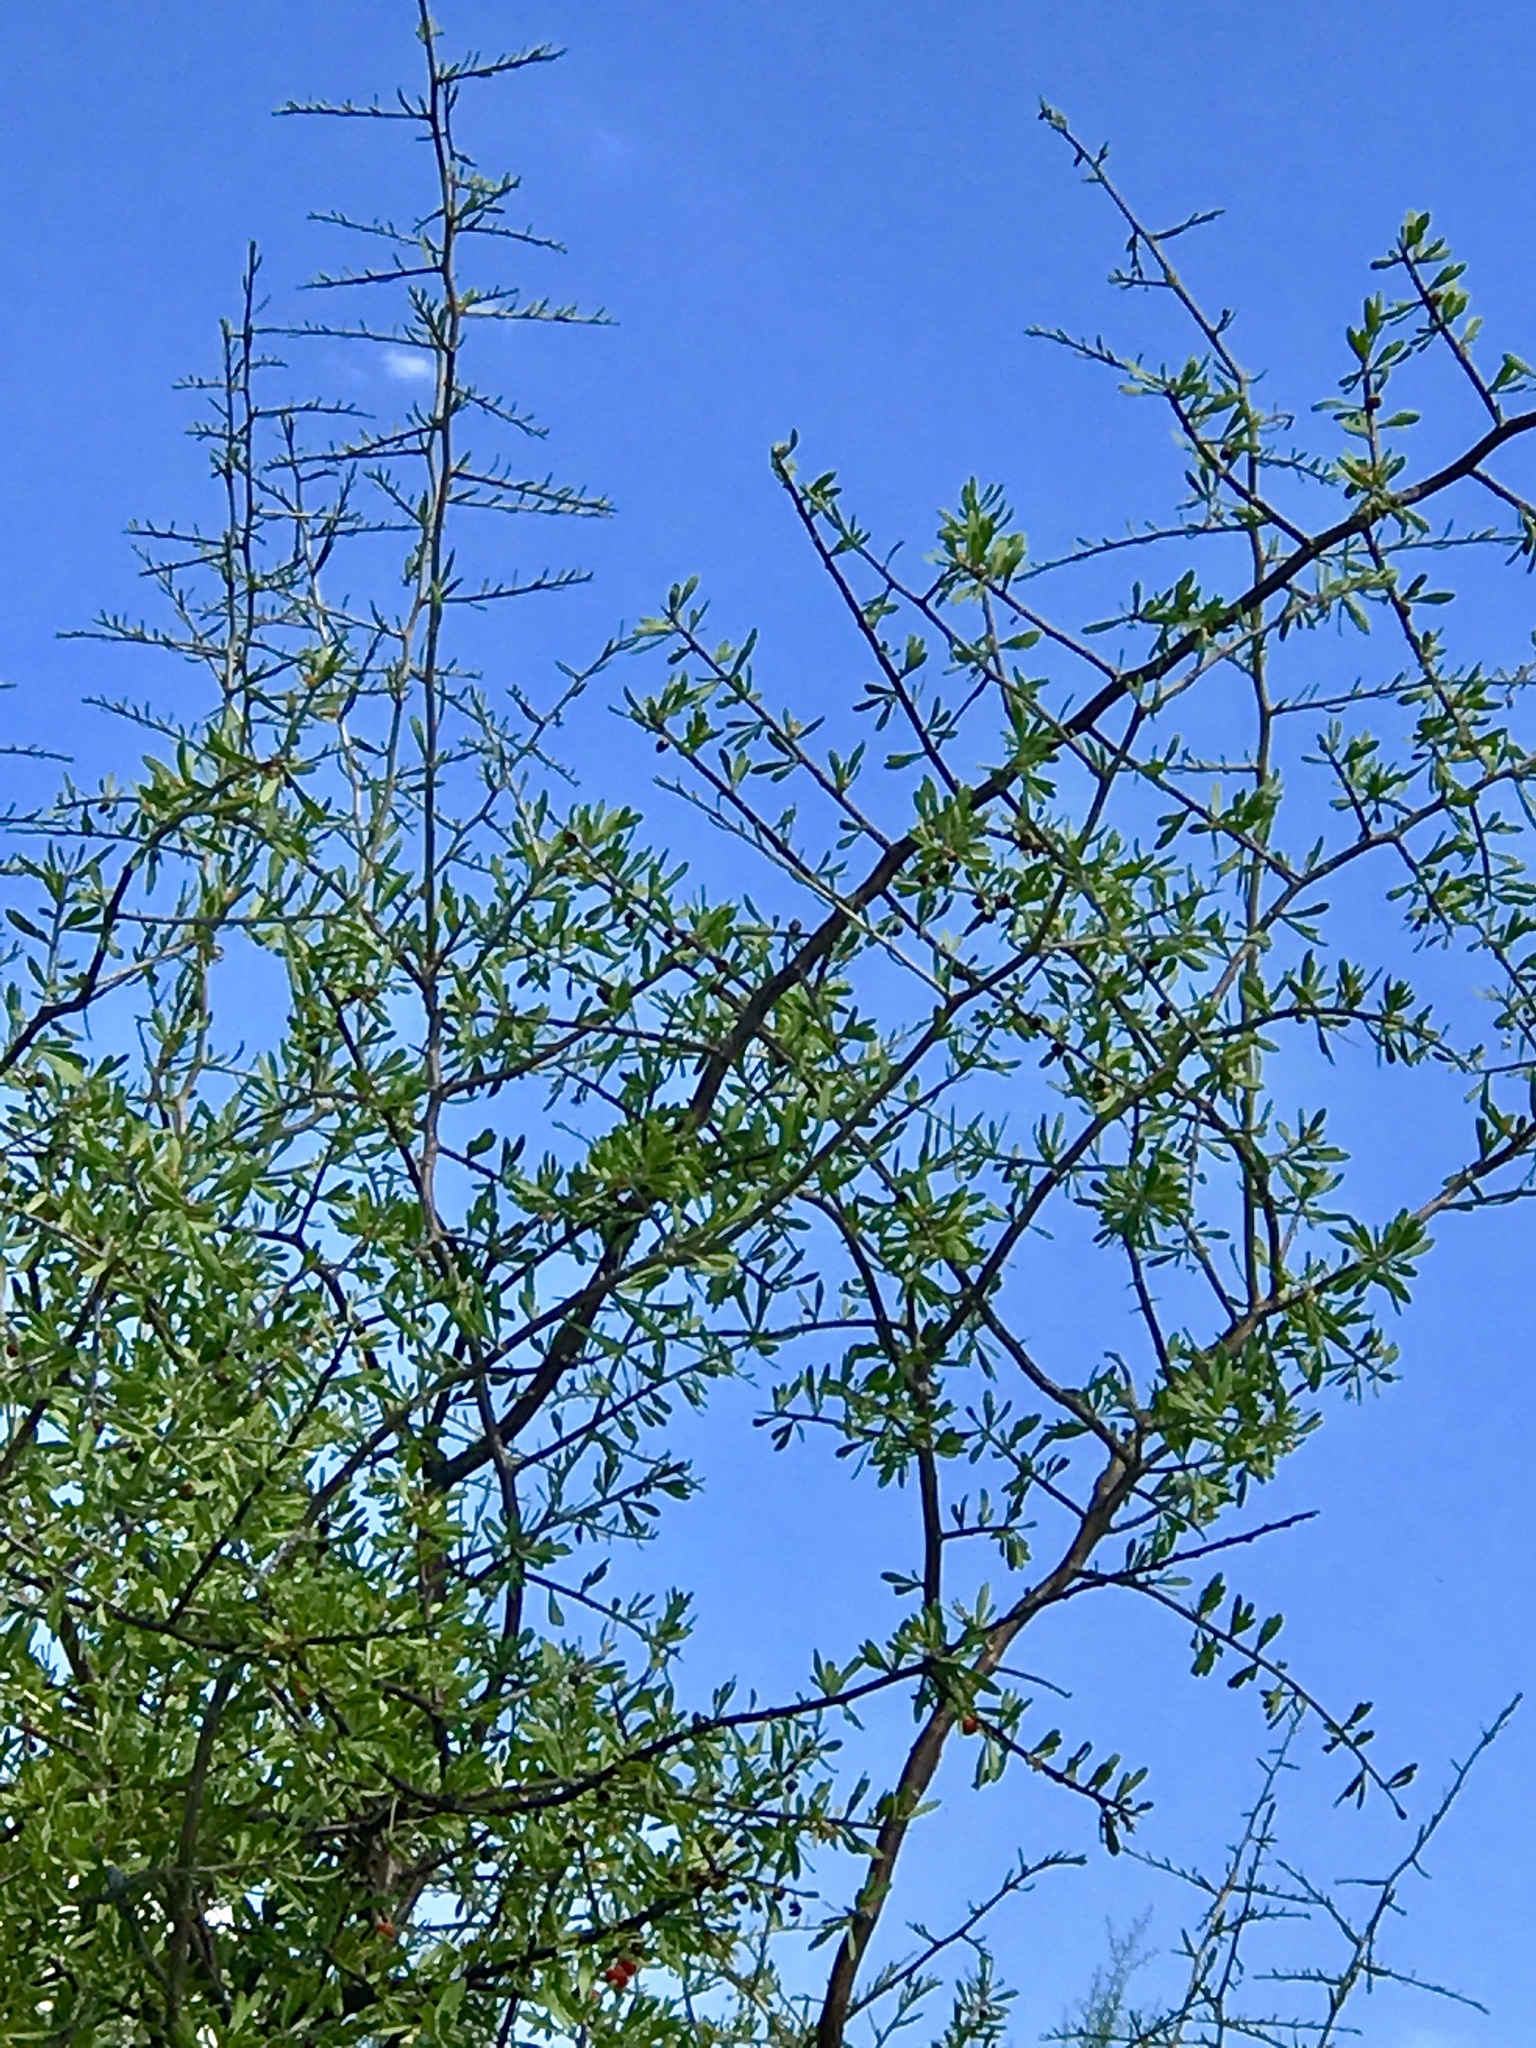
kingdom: Plantae
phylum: Tracheophyta
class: Magnoliopsida
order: Solanales
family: Solanaceae
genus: Lycium
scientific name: Lycium berlandieri
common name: Berlandier wolfberry
